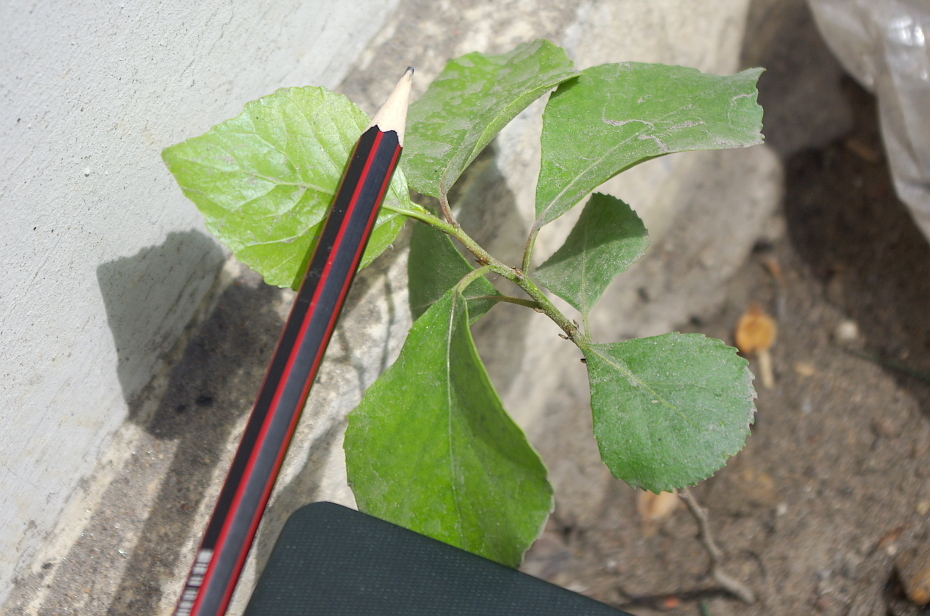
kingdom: Plantae
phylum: Tracheophyta
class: Magnoliopsida
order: Malpighiales
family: Salicaceae
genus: Populus
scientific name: Populus
